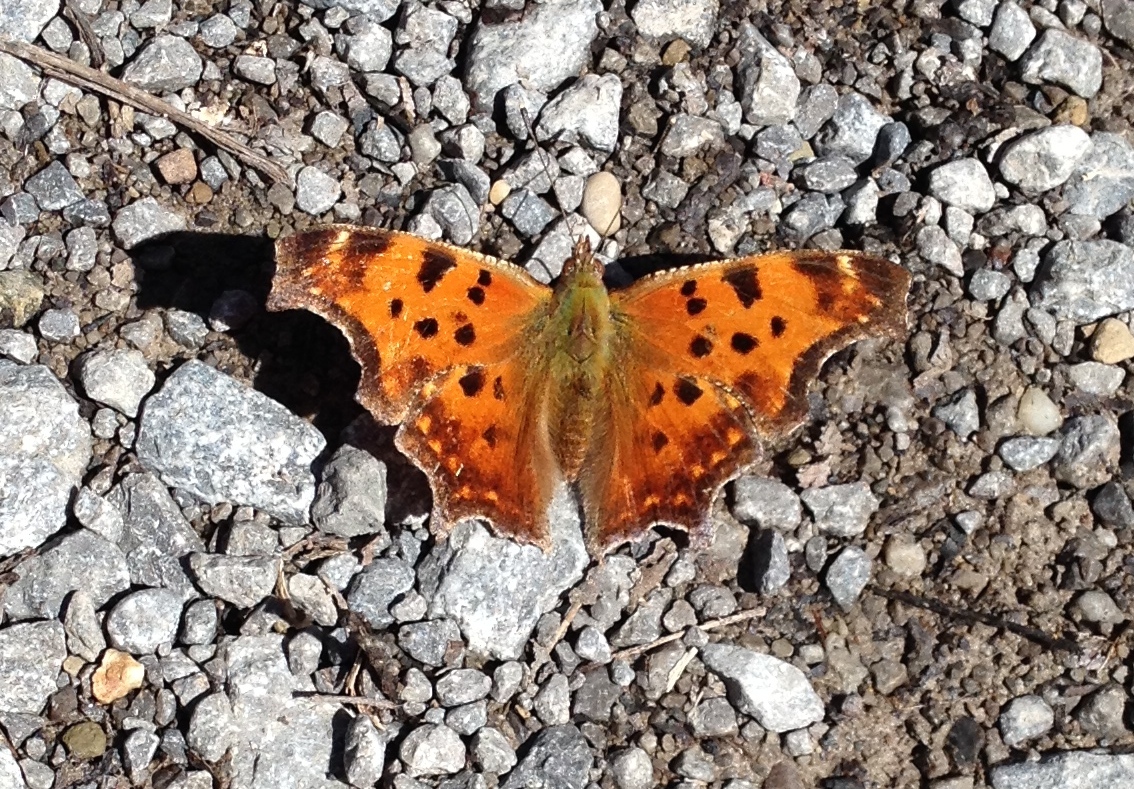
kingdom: Animalia
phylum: Arthropoda
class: Insecta
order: Lepidoptera
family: Nymphalidae
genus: Polygonia
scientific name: Polygonia comma
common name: Eastern comma
